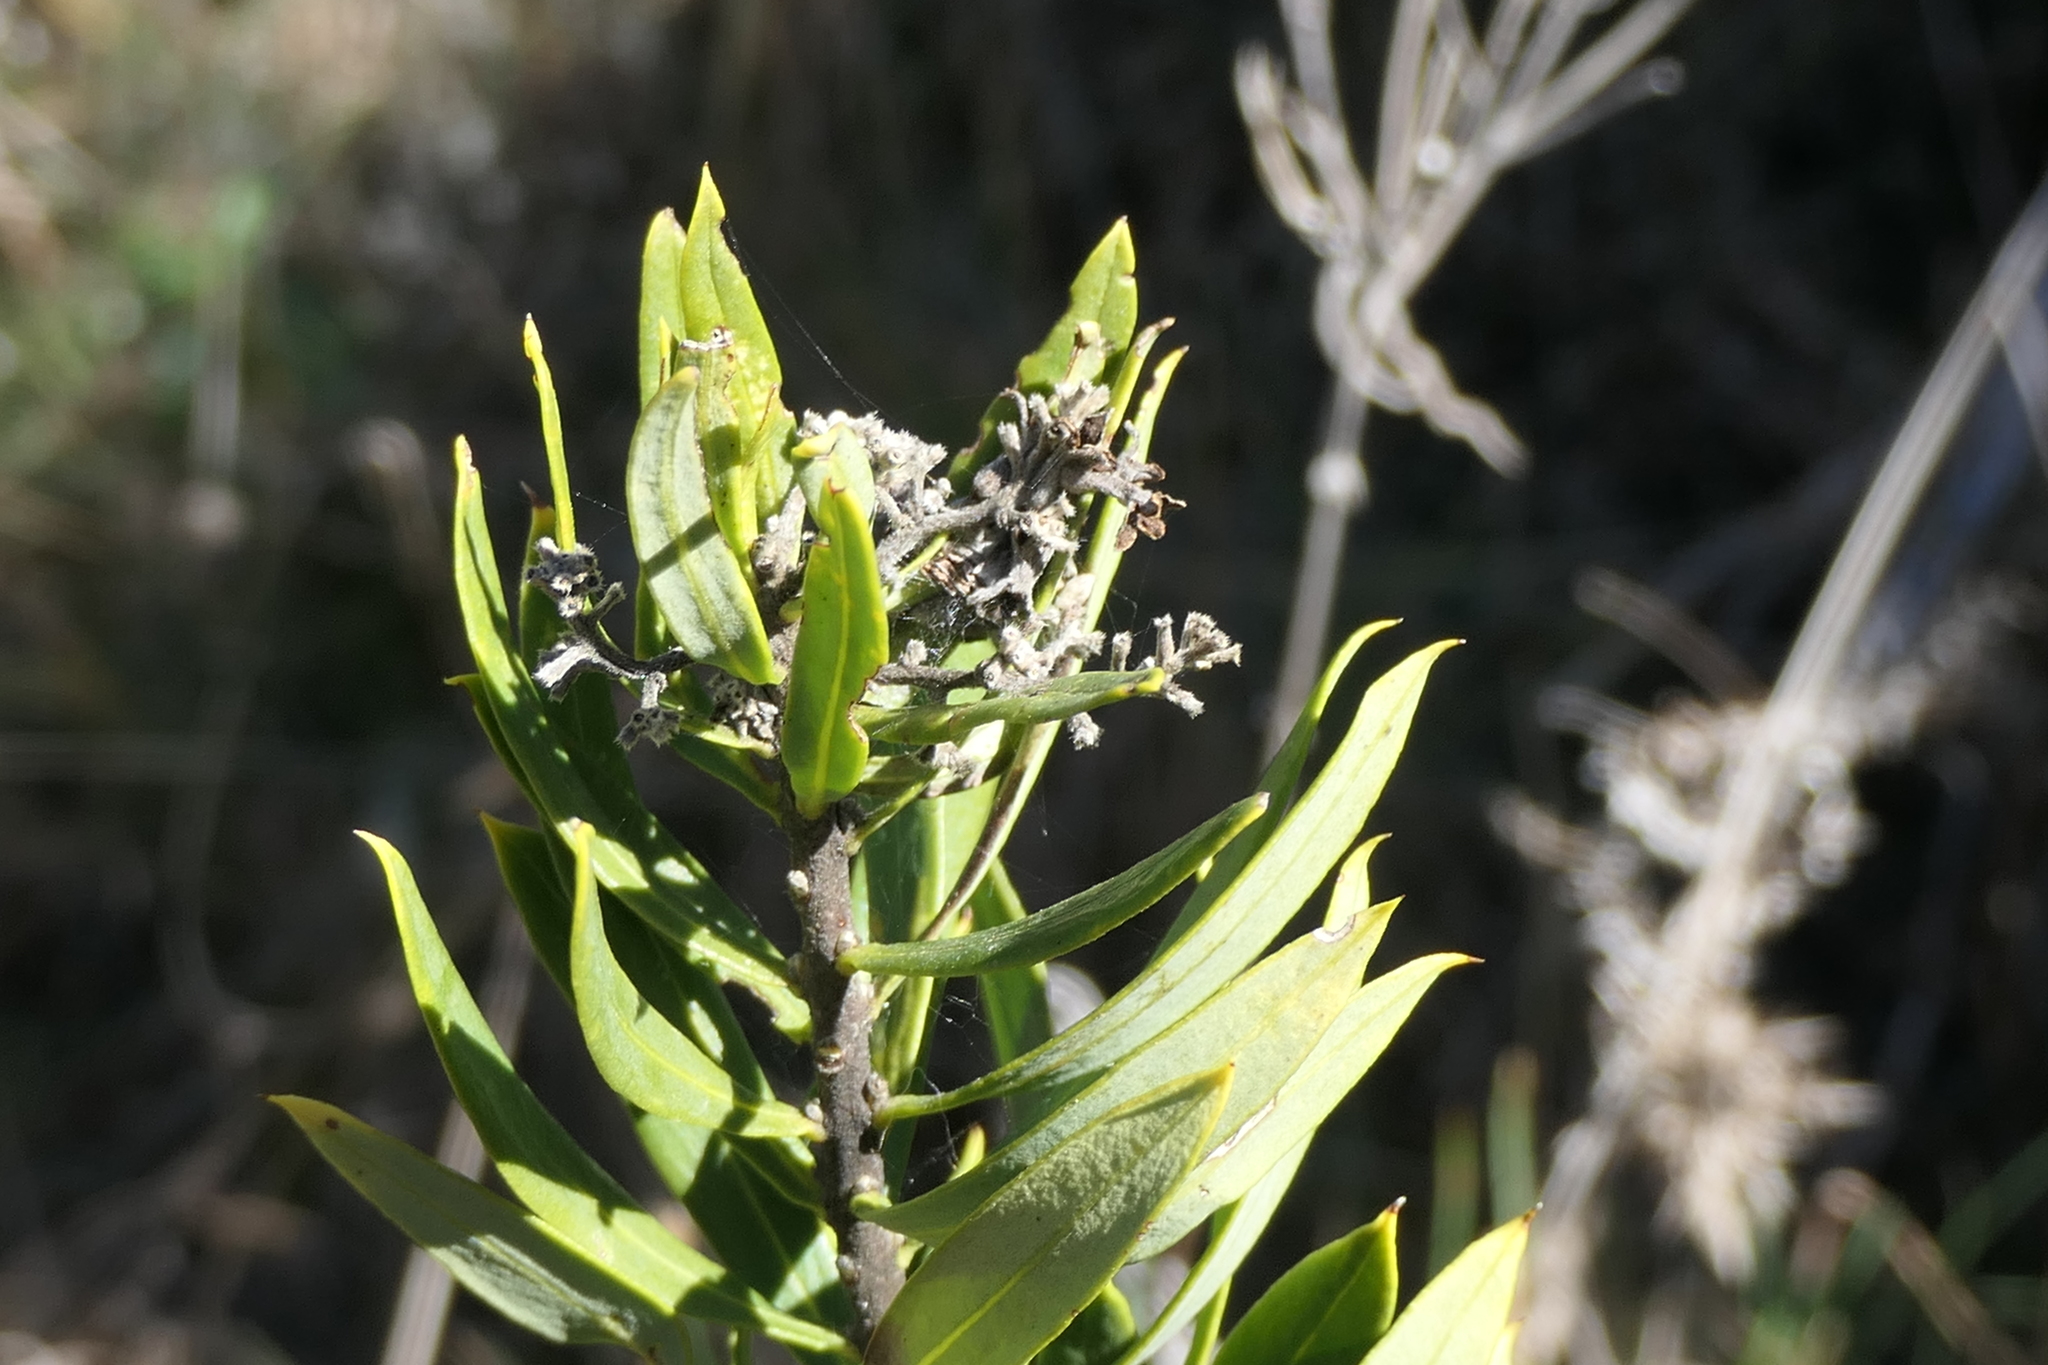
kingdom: Plantae
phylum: Tracheophyta
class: Magnoliopsida
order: Malvales
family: Thymelaeaceae
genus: Daphne
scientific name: Daphne gnidium
